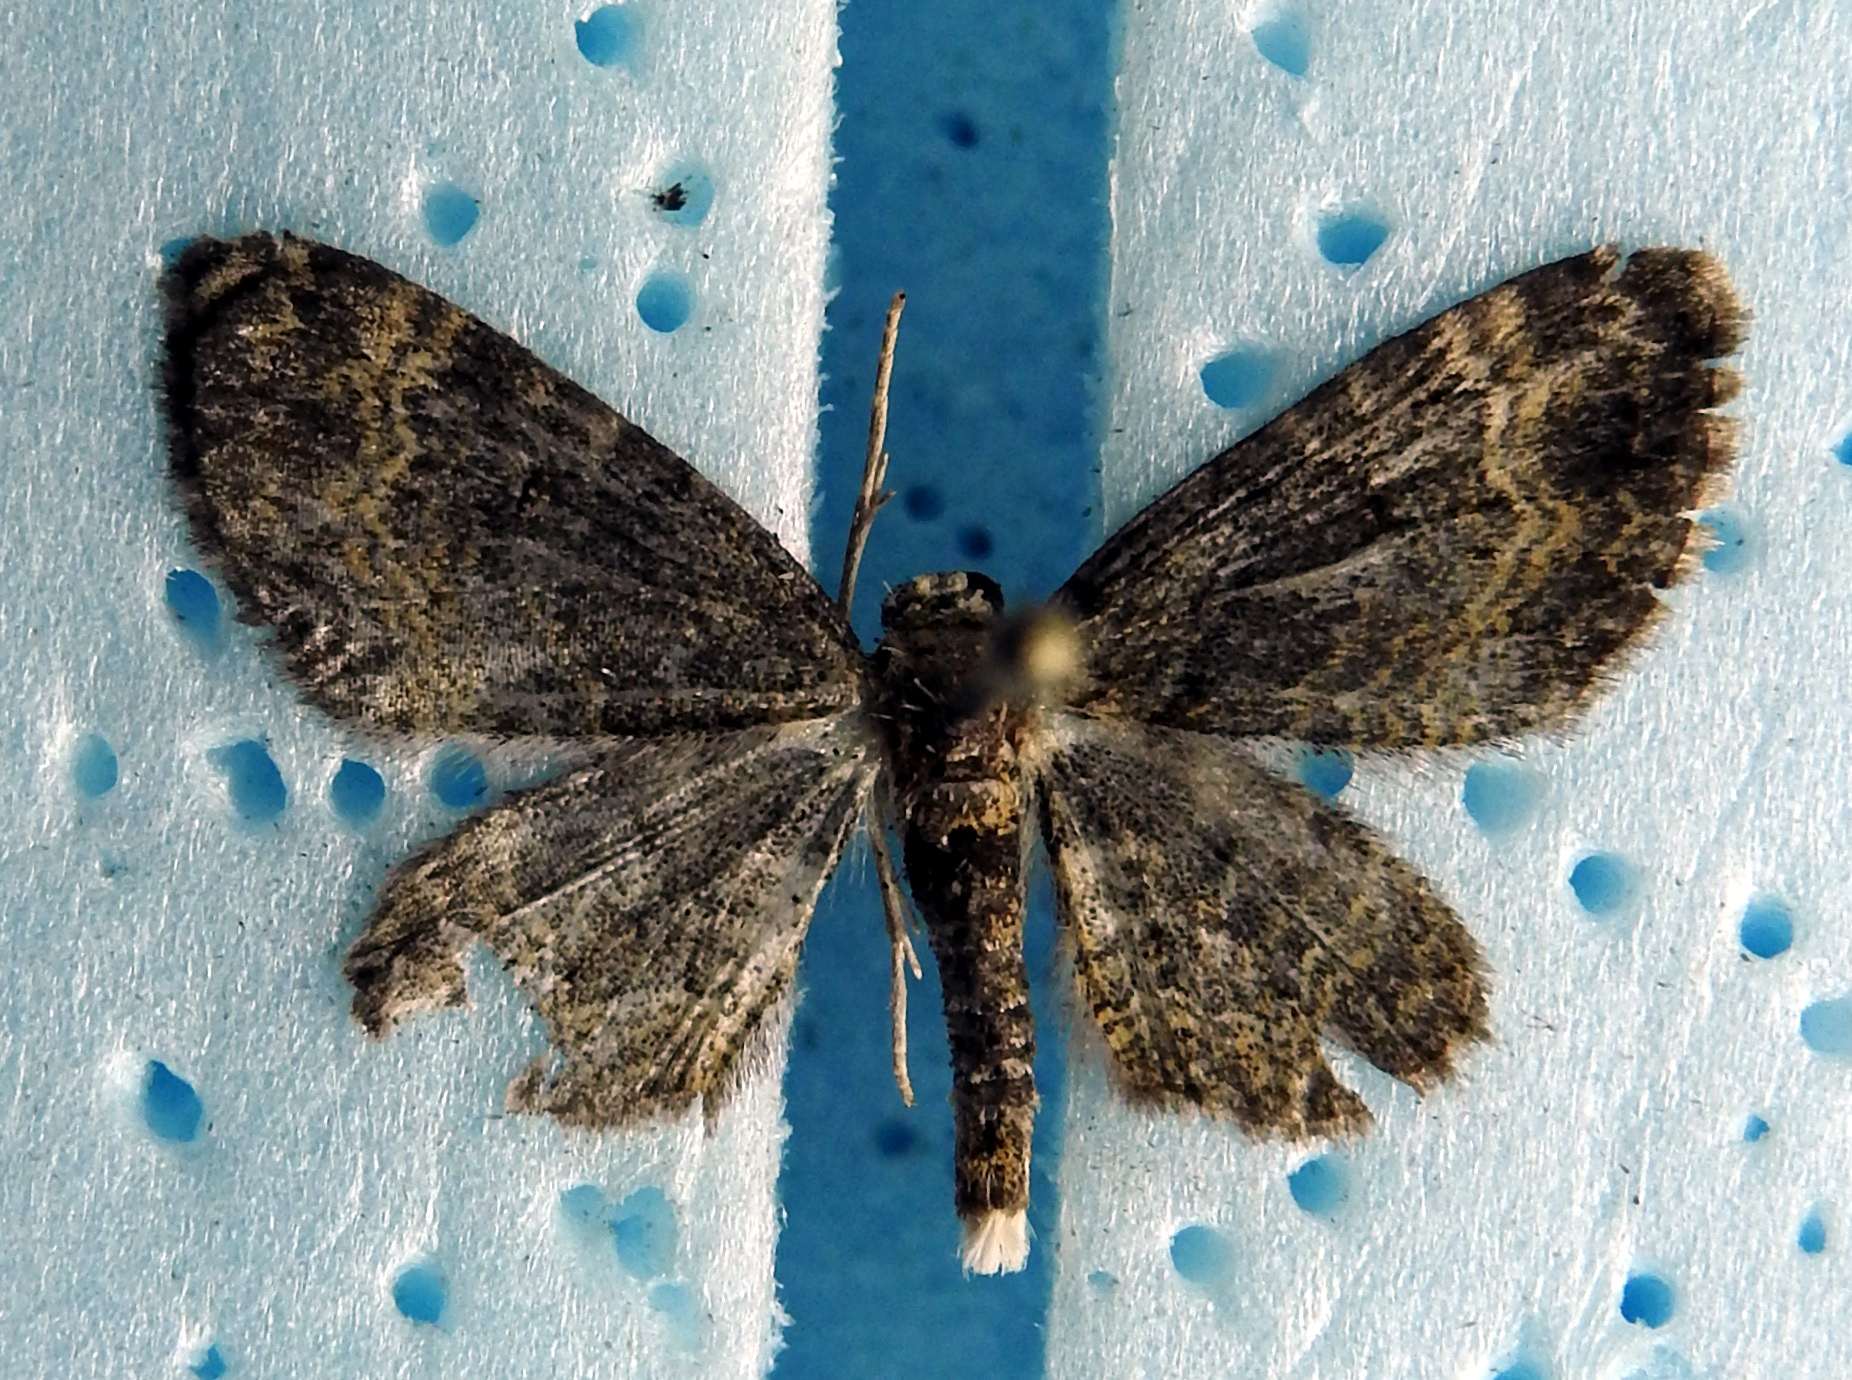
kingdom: Animalia
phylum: Arthropoda
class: Insecta
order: Lepidoptera
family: Geometridae
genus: Pasiphila
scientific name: Pasiphila rectangulata
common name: Green pug
